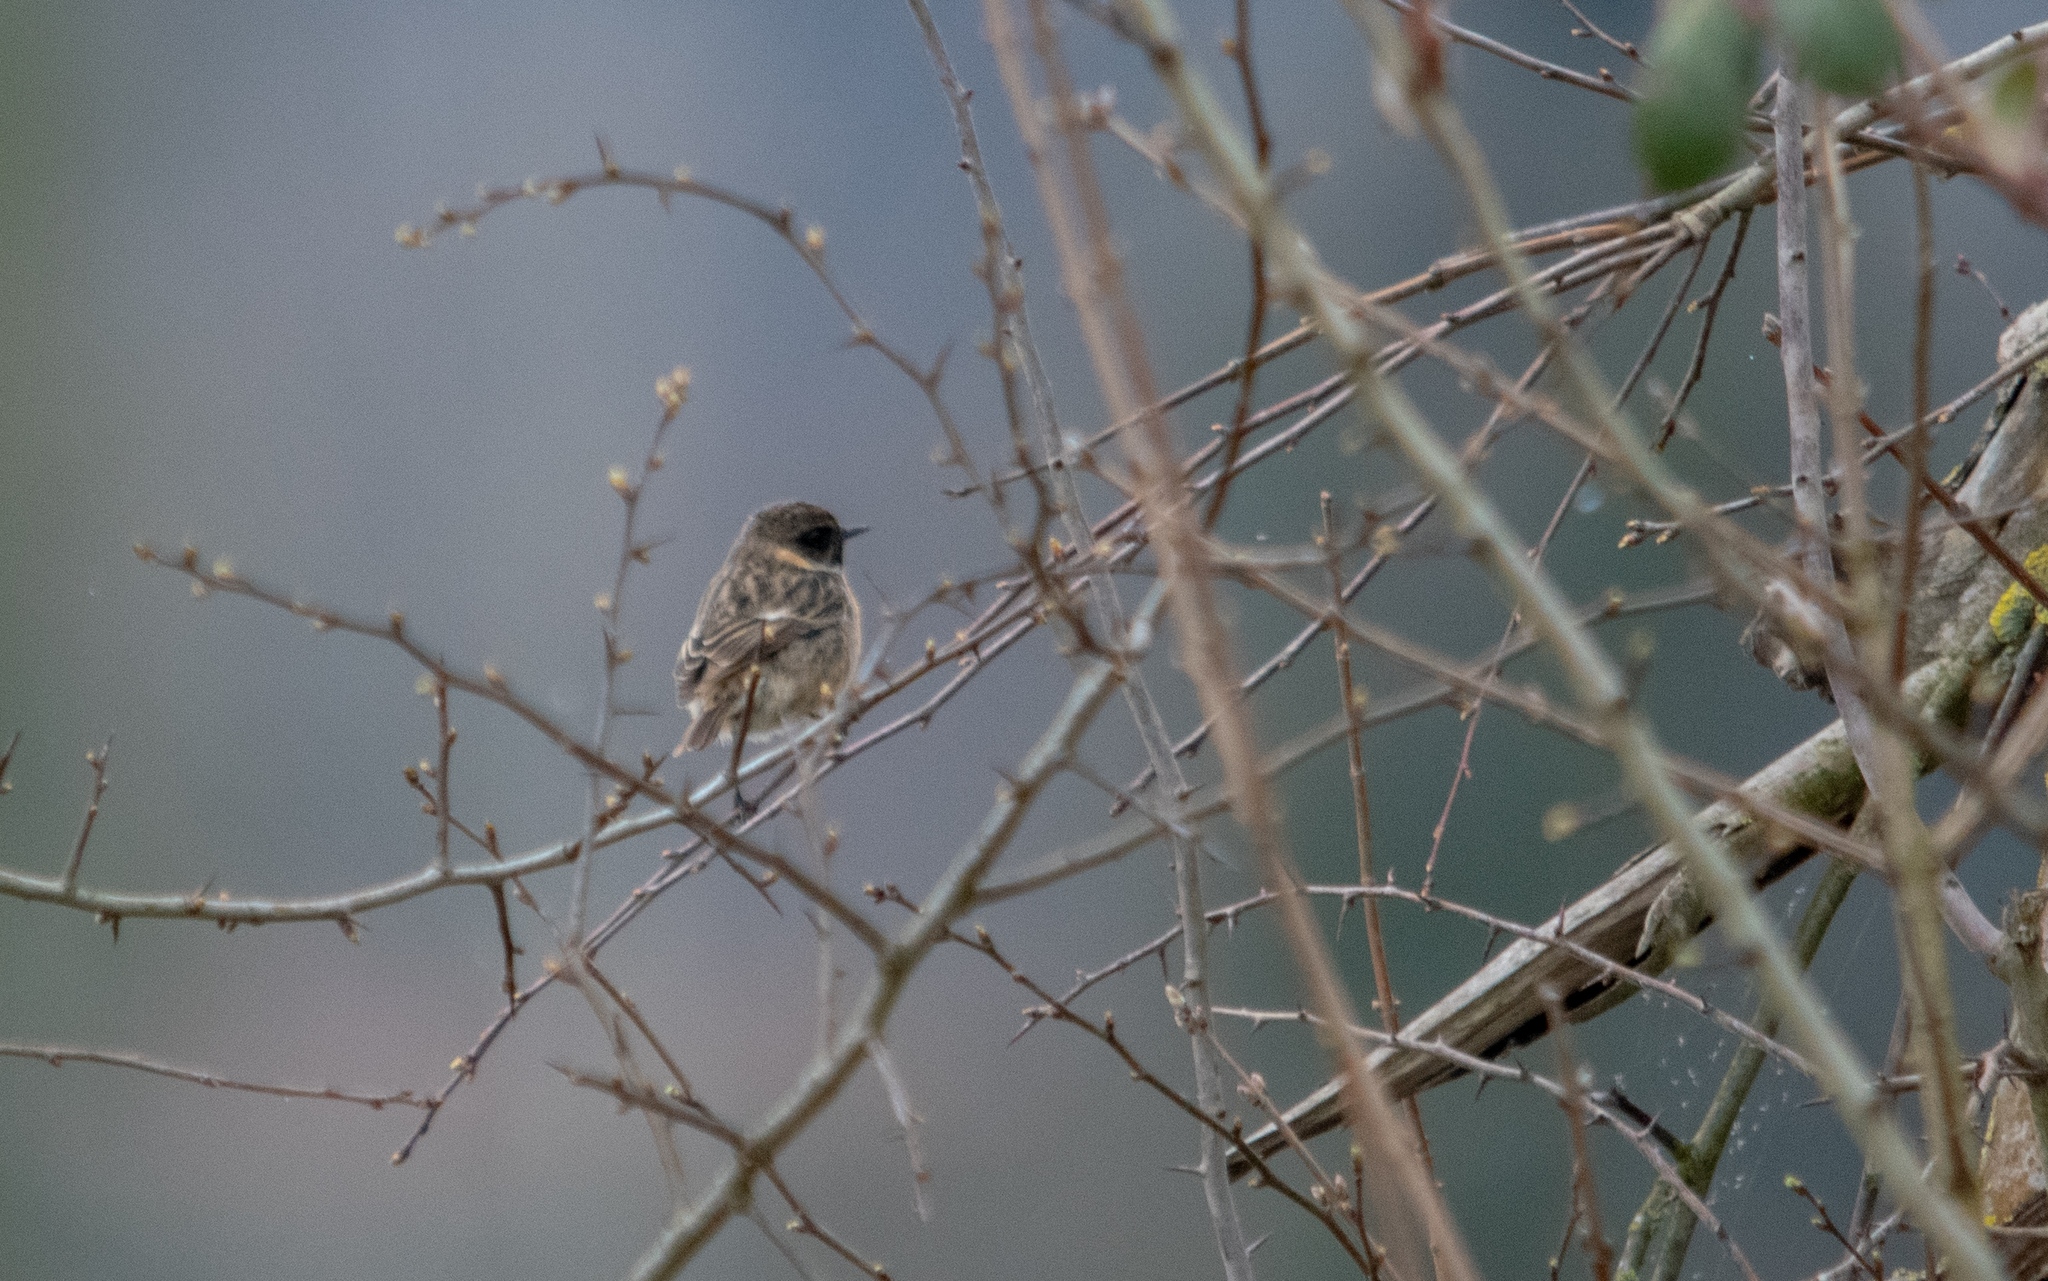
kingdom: Animalia
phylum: Chordata
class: Aves
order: Passeriformes
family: Muscicapidae
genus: Saxicola
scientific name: Saxicola rubicola
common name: European stonechat
